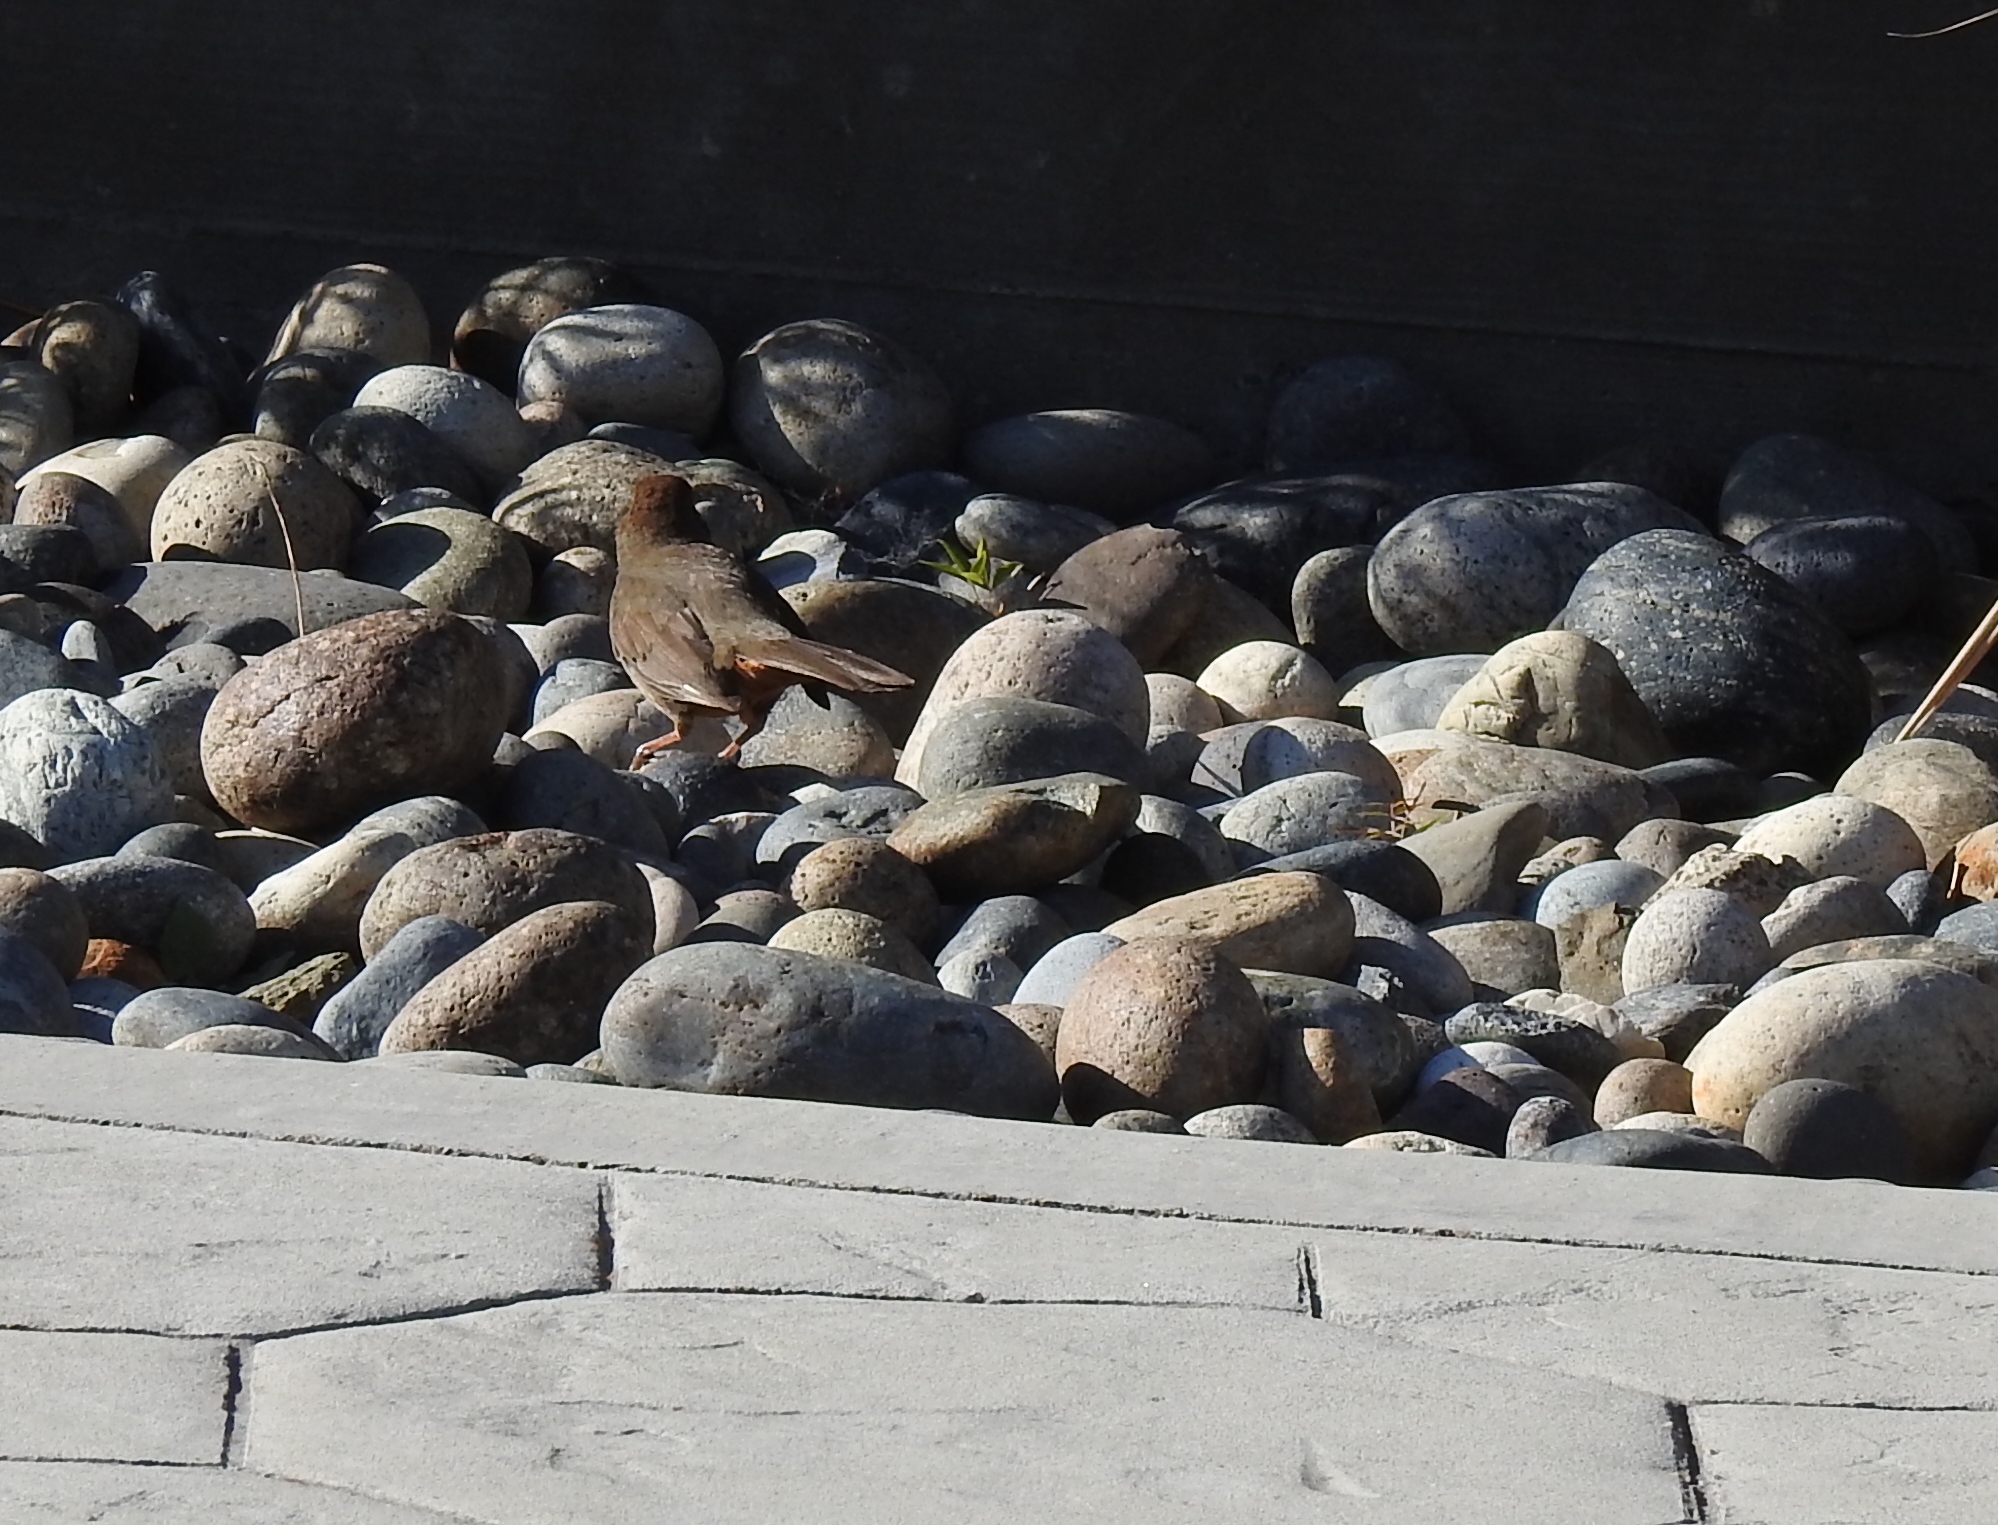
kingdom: Animalia
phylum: Chordata
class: Aves
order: Passeriformes
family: Passerellidae
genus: Melozone
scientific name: Melozone crissalis
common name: California towhee
